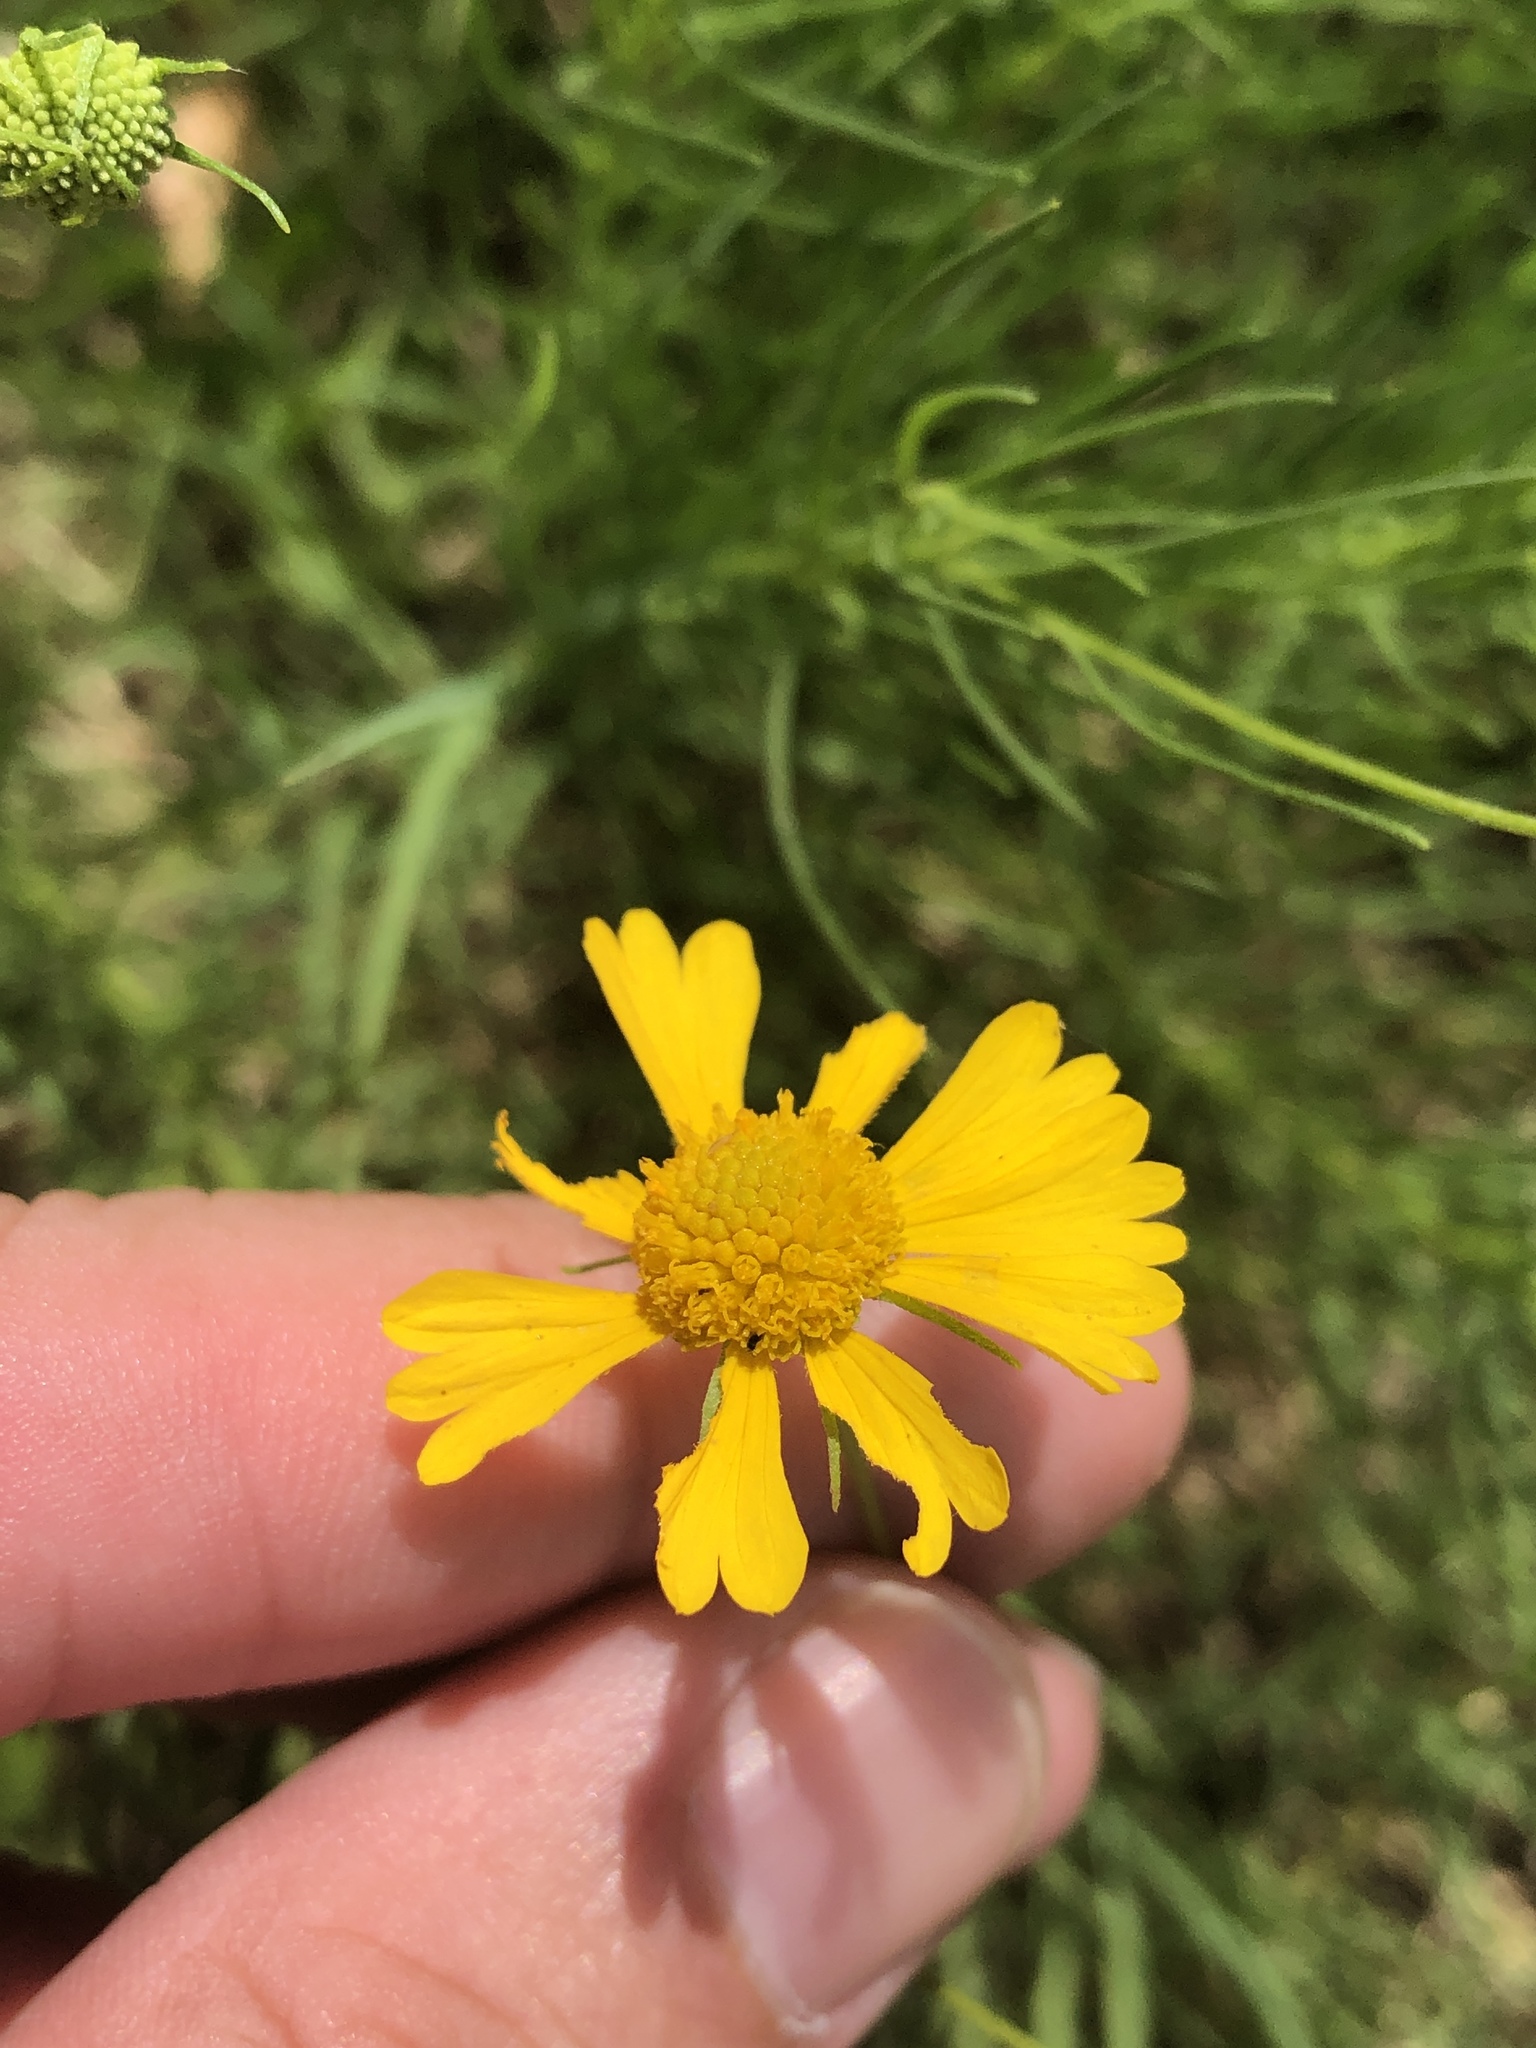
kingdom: Plantae
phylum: Tracheophyta
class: Magnoliopsida
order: Asterales
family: Asteraceae
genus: Helenium
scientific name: Helenium amarum
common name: Bitter sneezeweed
